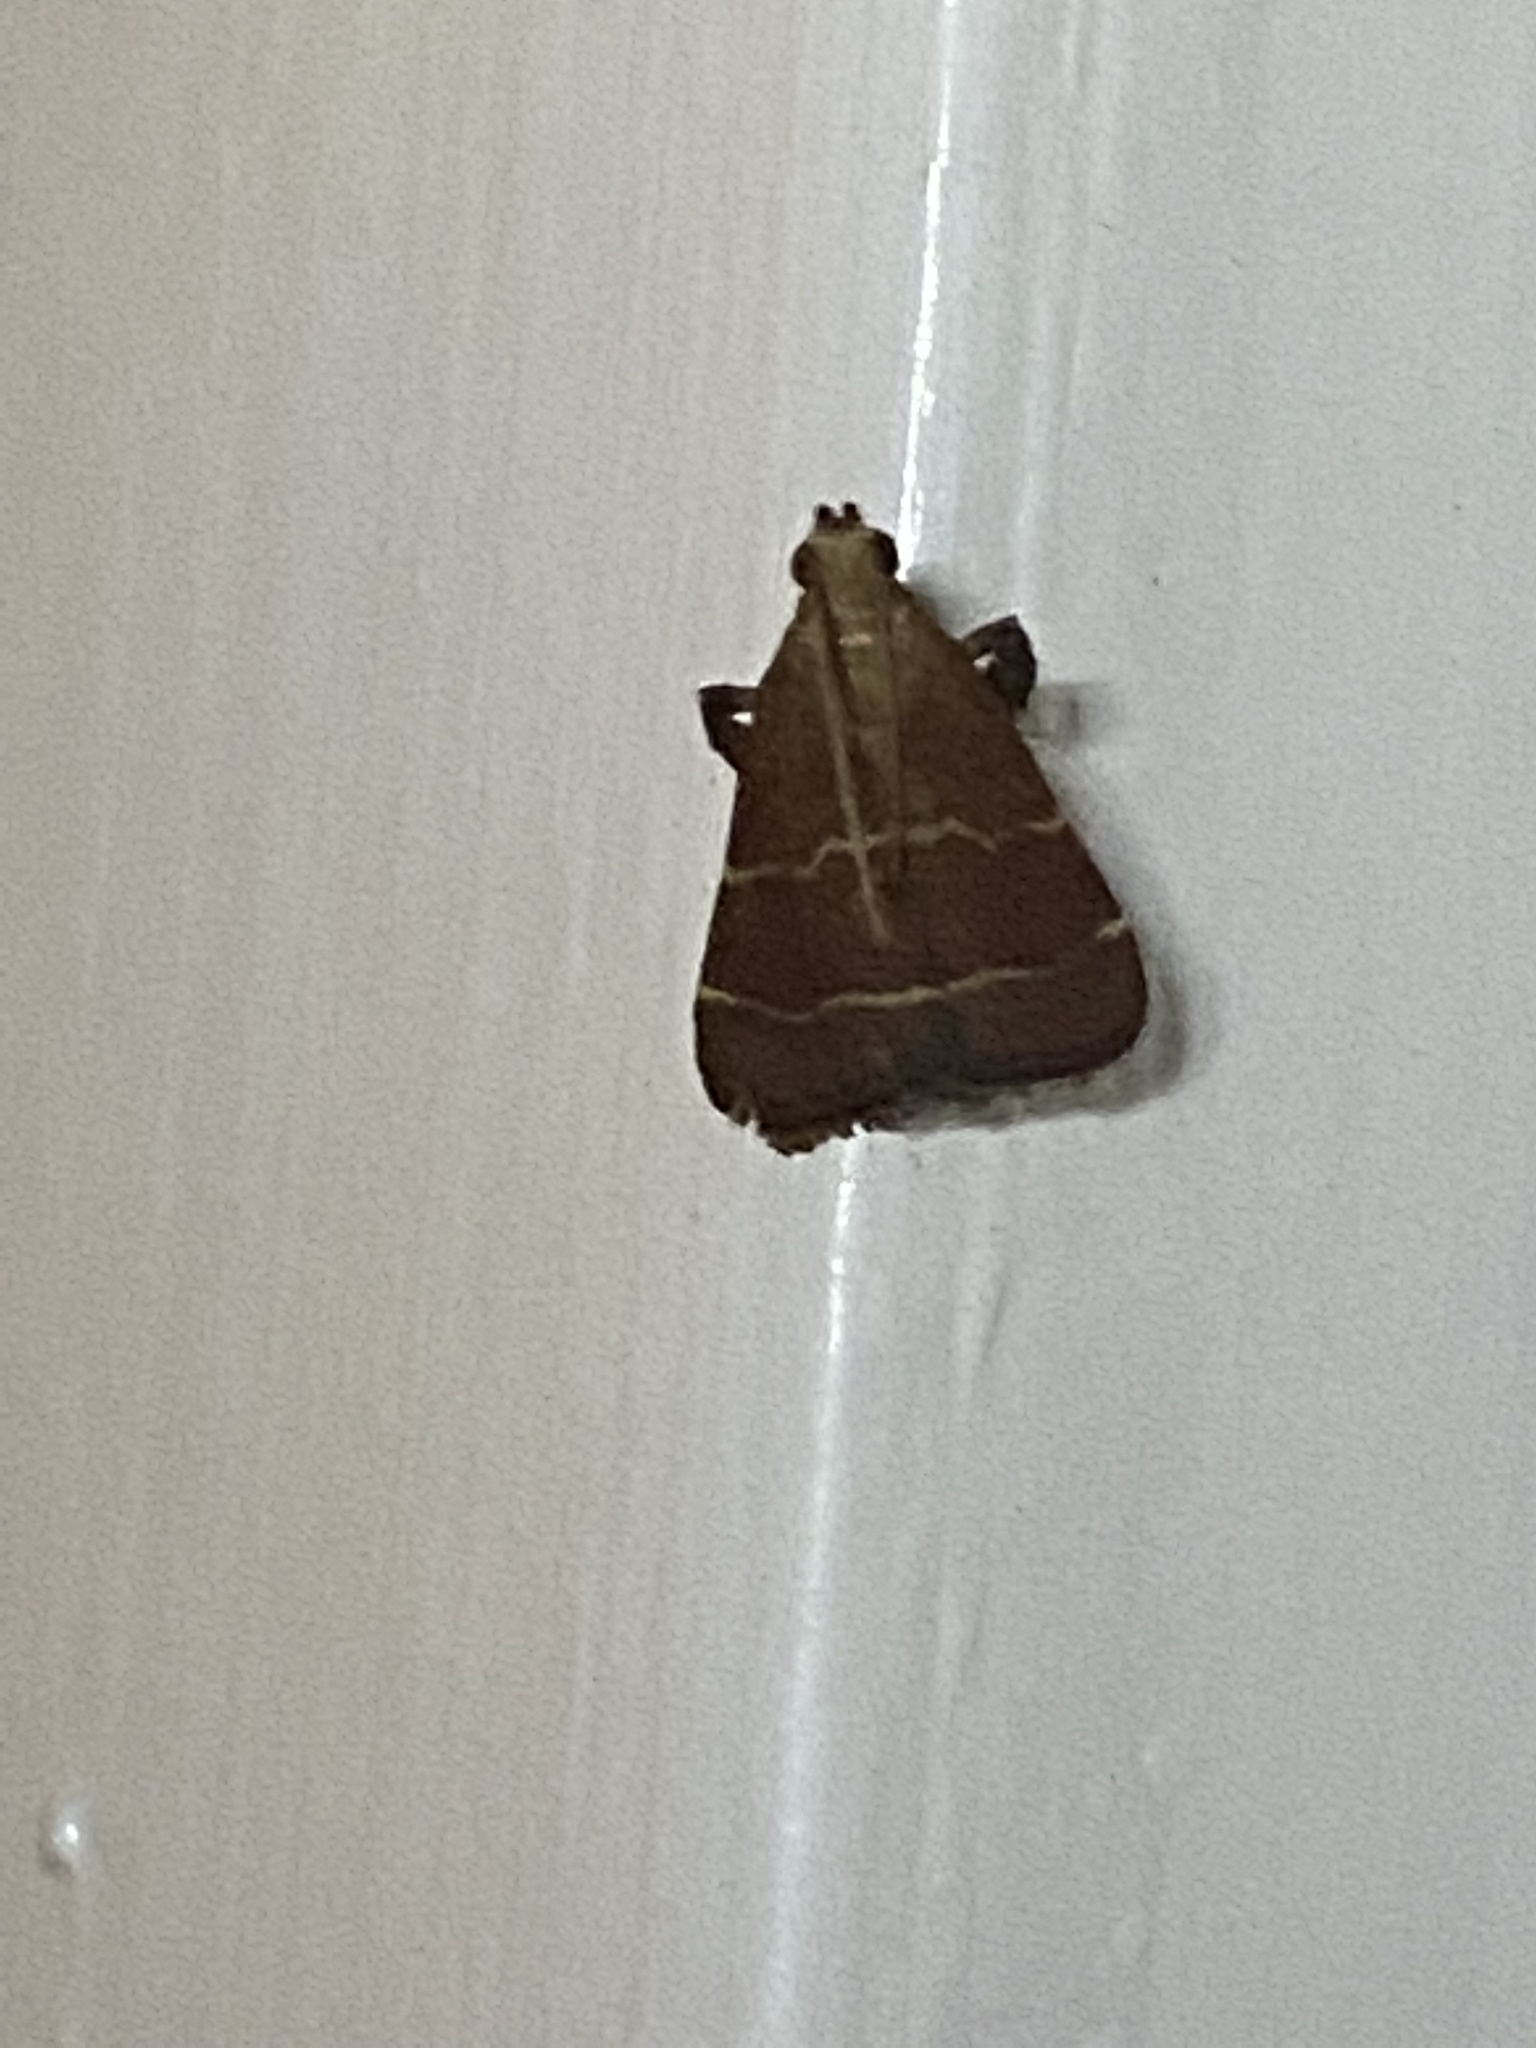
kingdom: Animalia
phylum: Arthropoda
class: Insecta
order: Lepidoptera
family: Pyralidae
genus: Arta
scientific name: Arta statalis
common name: Posturing arta moth
